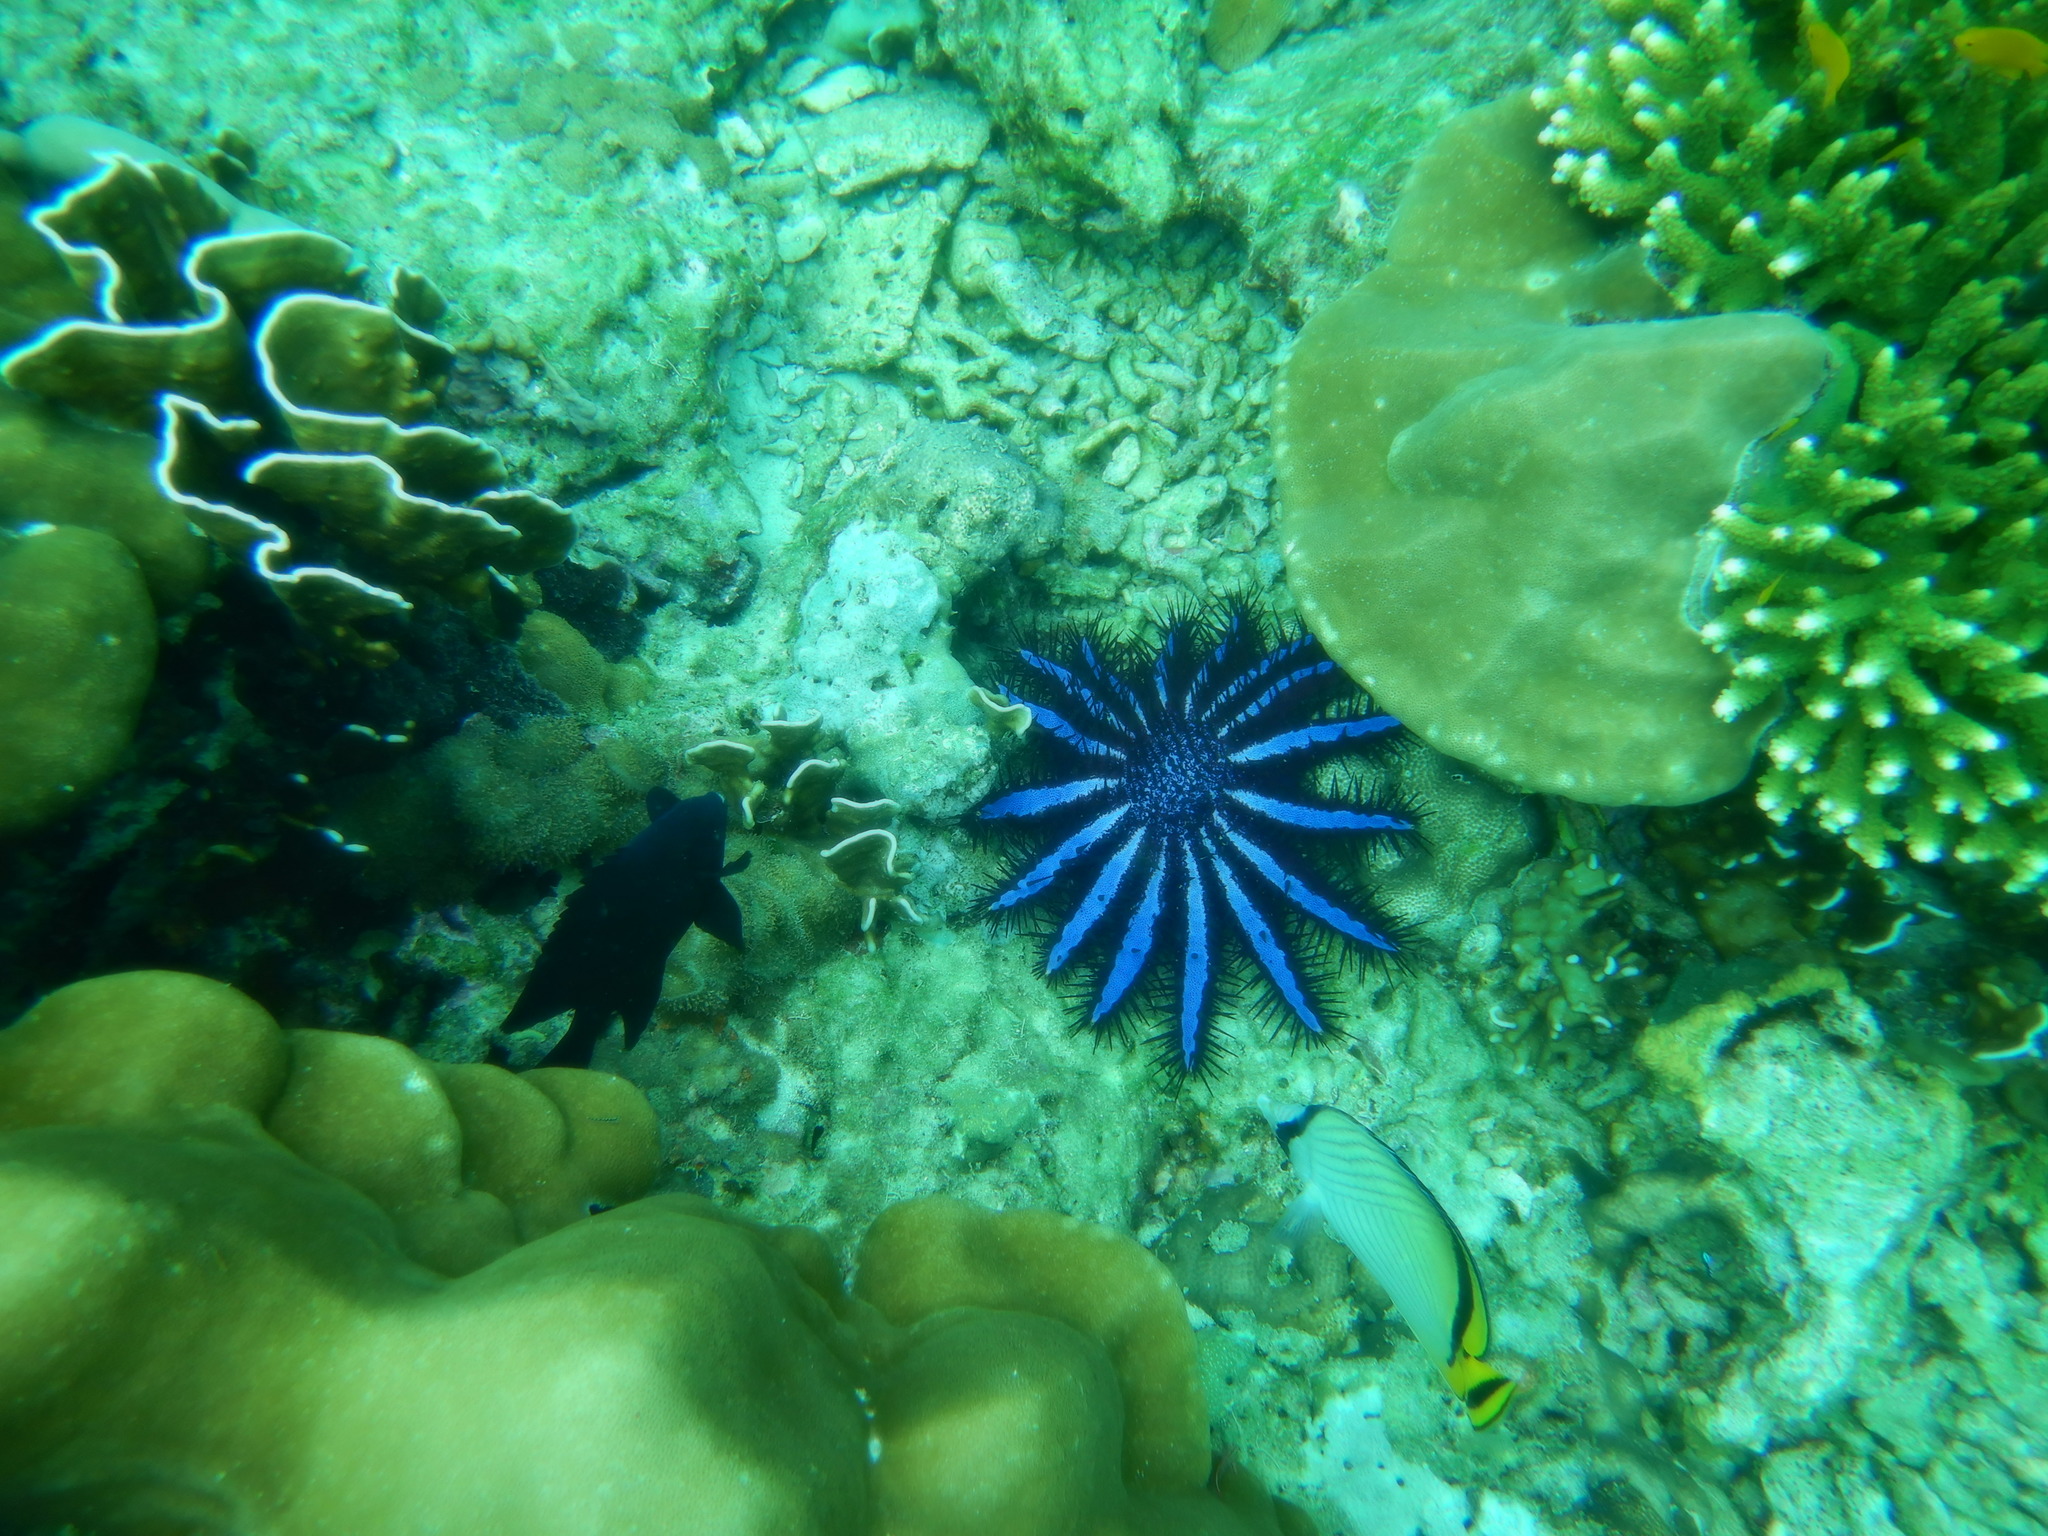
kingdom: Animalia
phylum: Echinodermata
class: Asteroidea
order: Valvatida
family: Acanthasteridae
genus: Acanthaster
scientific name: Acanthaster planci
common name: Crown-of-thorns
